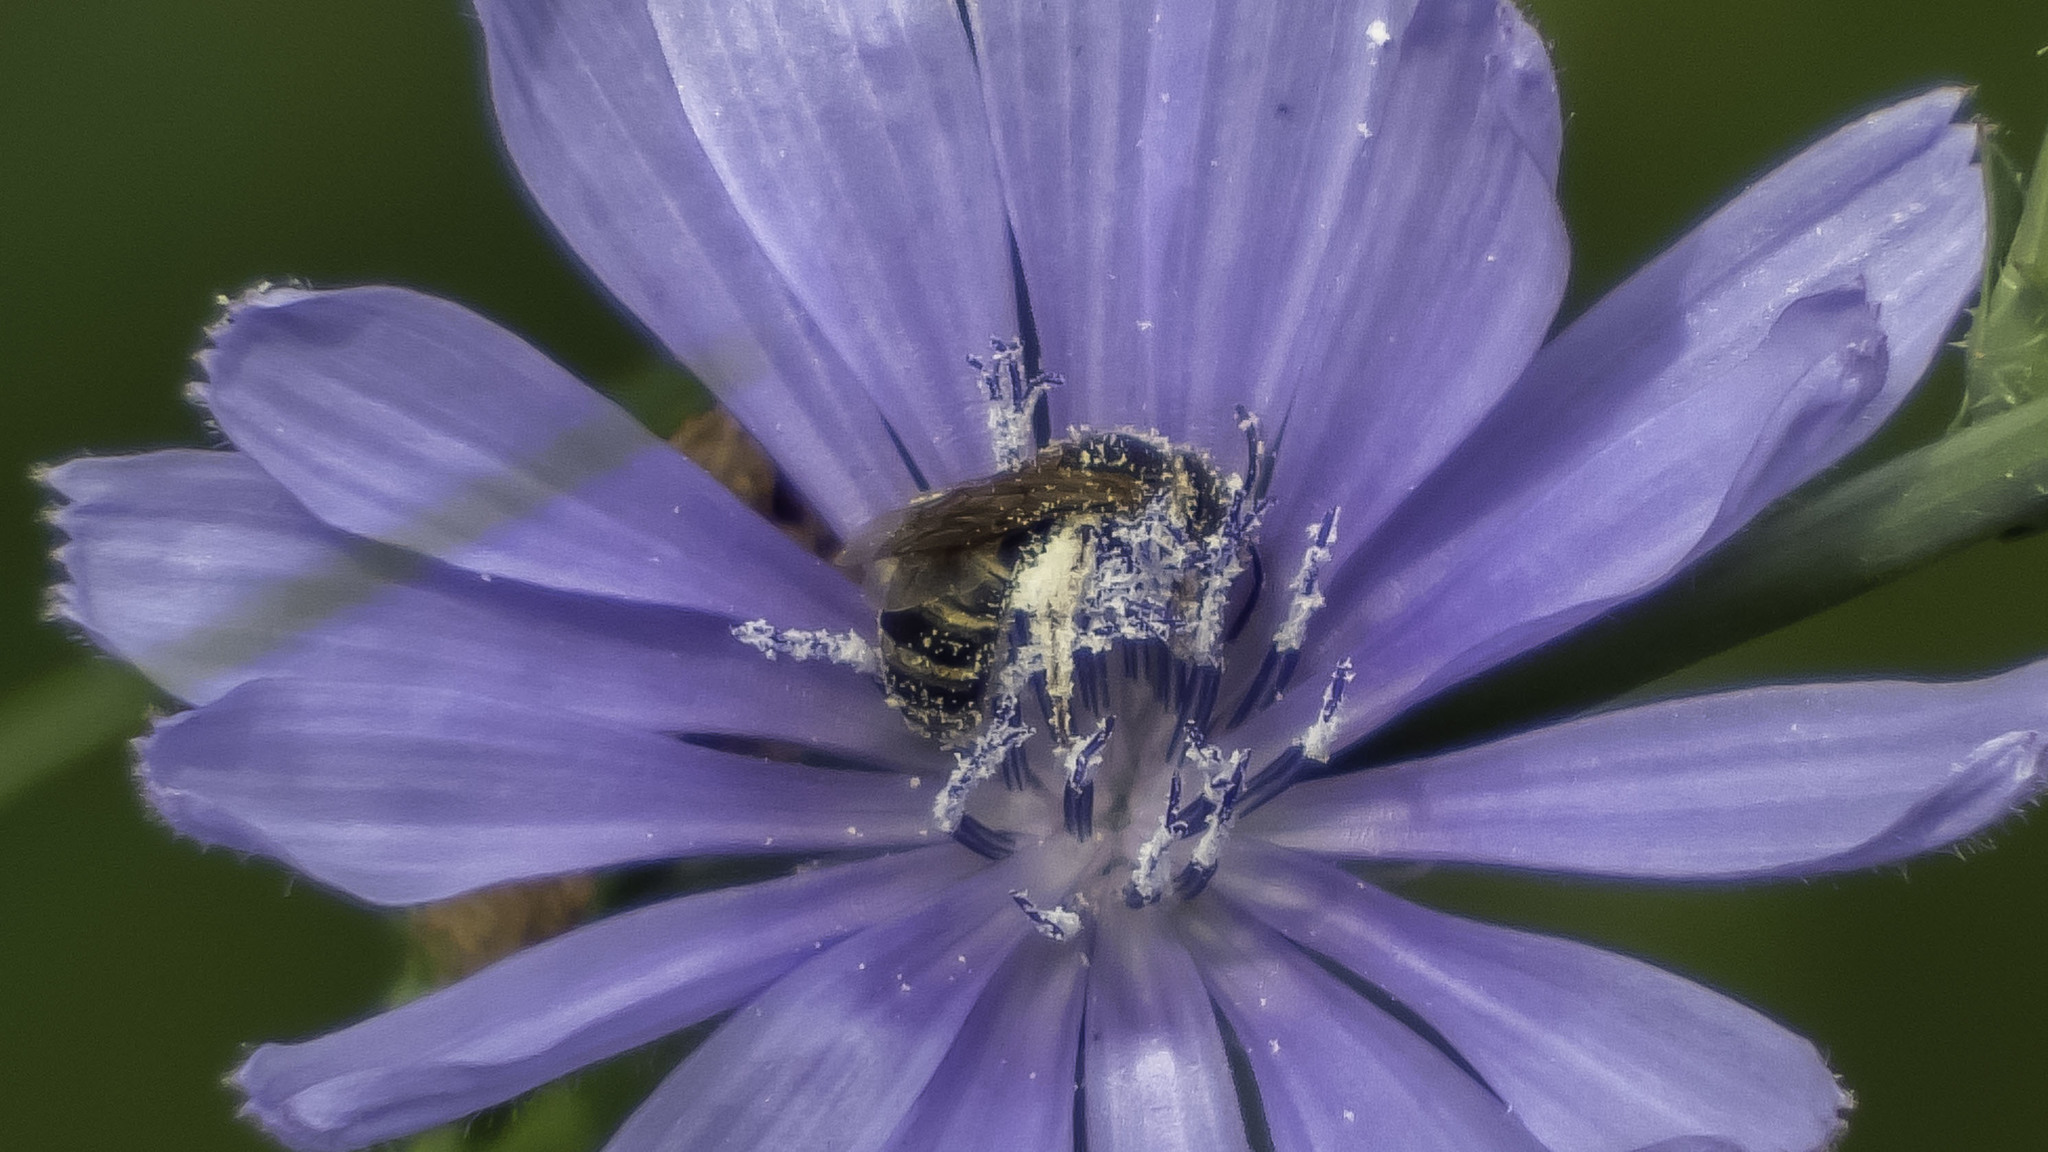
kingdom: Animalia
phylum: Arthropoda
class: Insecta
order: Hymenoptera
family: Halictidae
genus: Halictus
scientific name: Halictus ligatus
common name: Ligated furrow bee
